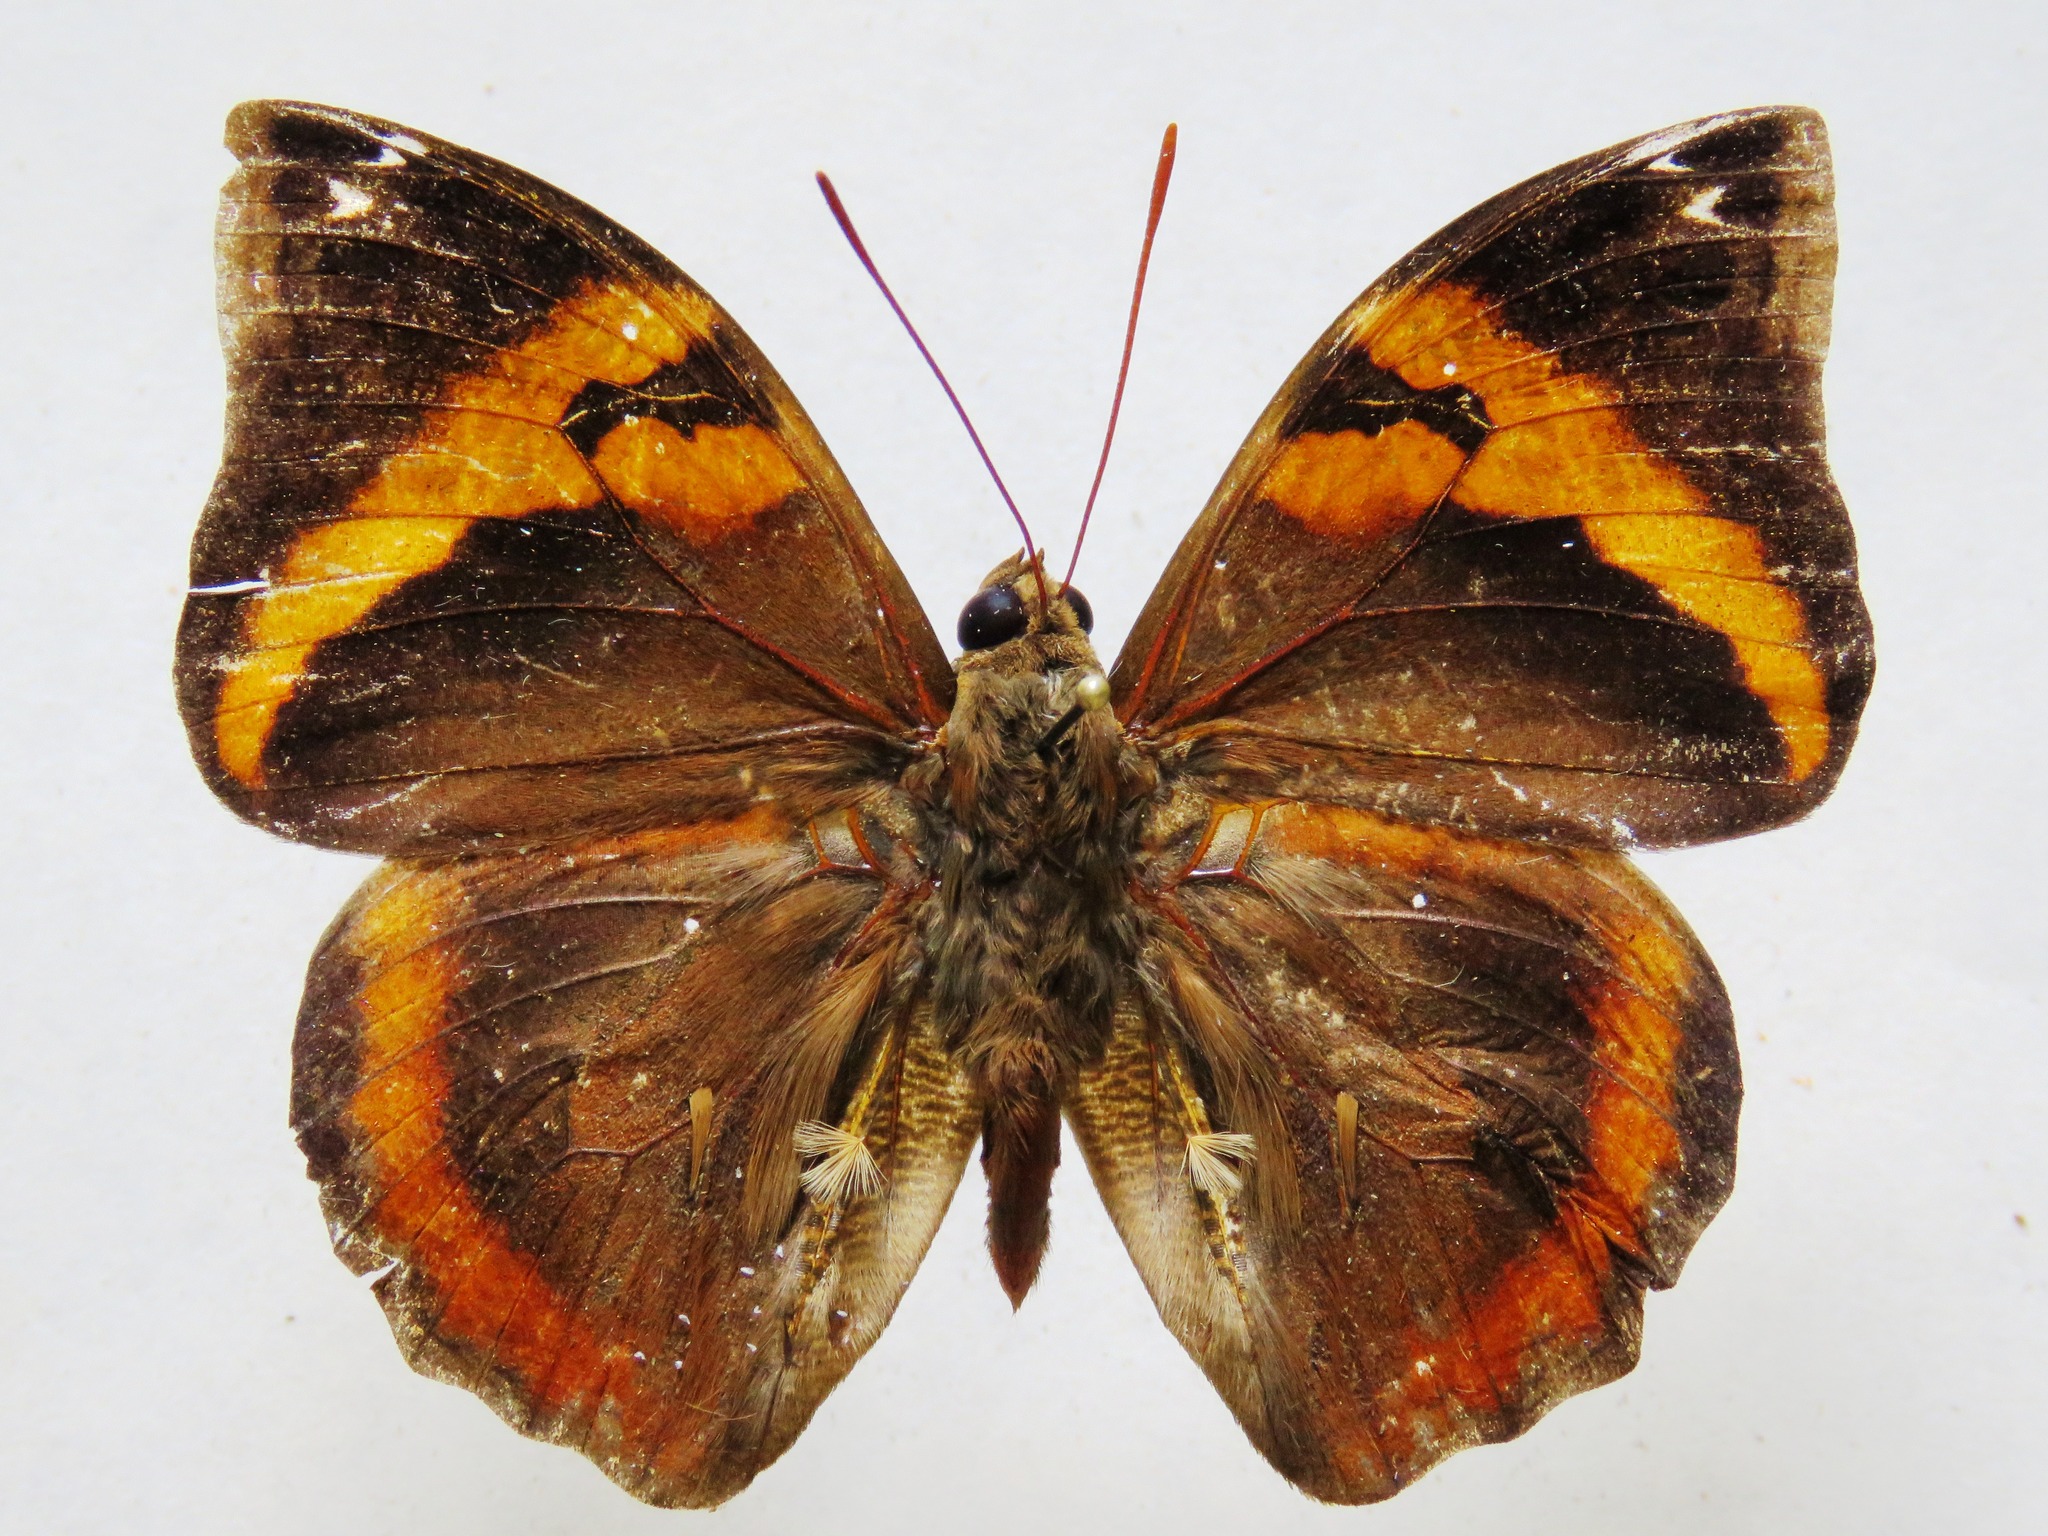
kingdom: Animalia
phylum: Arthropoda
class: Insecta
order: Lepidoptera
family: Nymphalidae
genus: Opsiphanes
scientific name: Opsiphanes cassina
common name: Split-banded owl-butterfly
